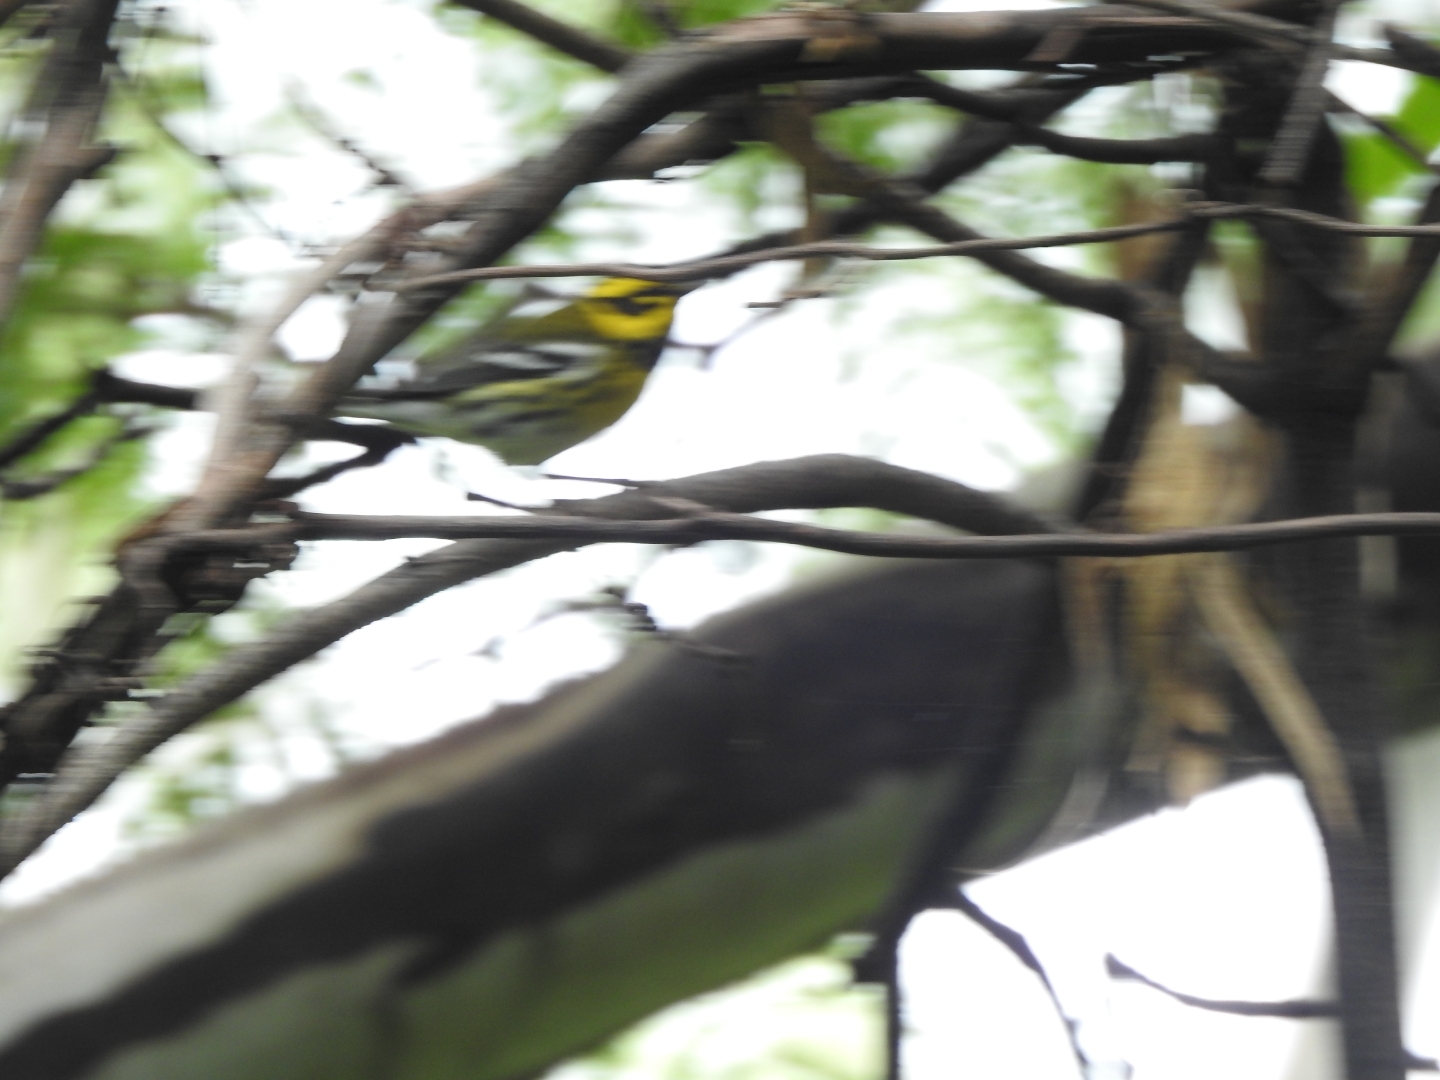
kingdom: Animalia
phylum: Chordata
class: Aves
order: Passeriformes
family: Parulidae
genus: Setophaga
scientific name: Setophaga townsendi
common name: Townsend's warbler
